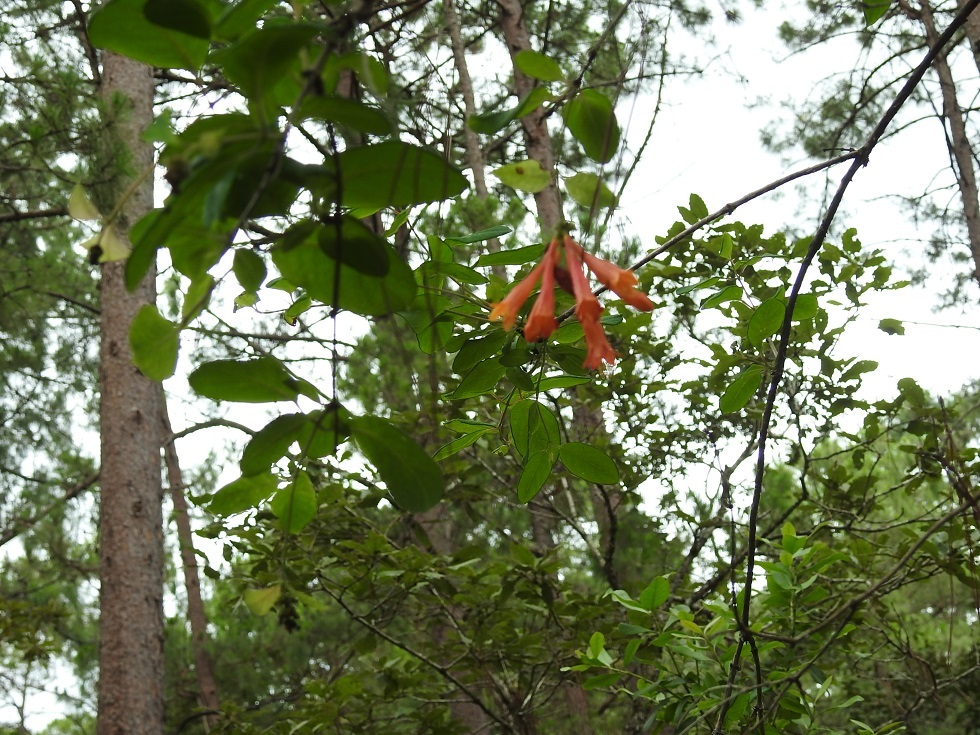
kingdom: Plantae
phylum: Tracheophyta
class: Magnoliopsida
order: Dipsacales
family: Caprifoliaceae
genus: Lonicera
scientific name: Lonicera pilosa
